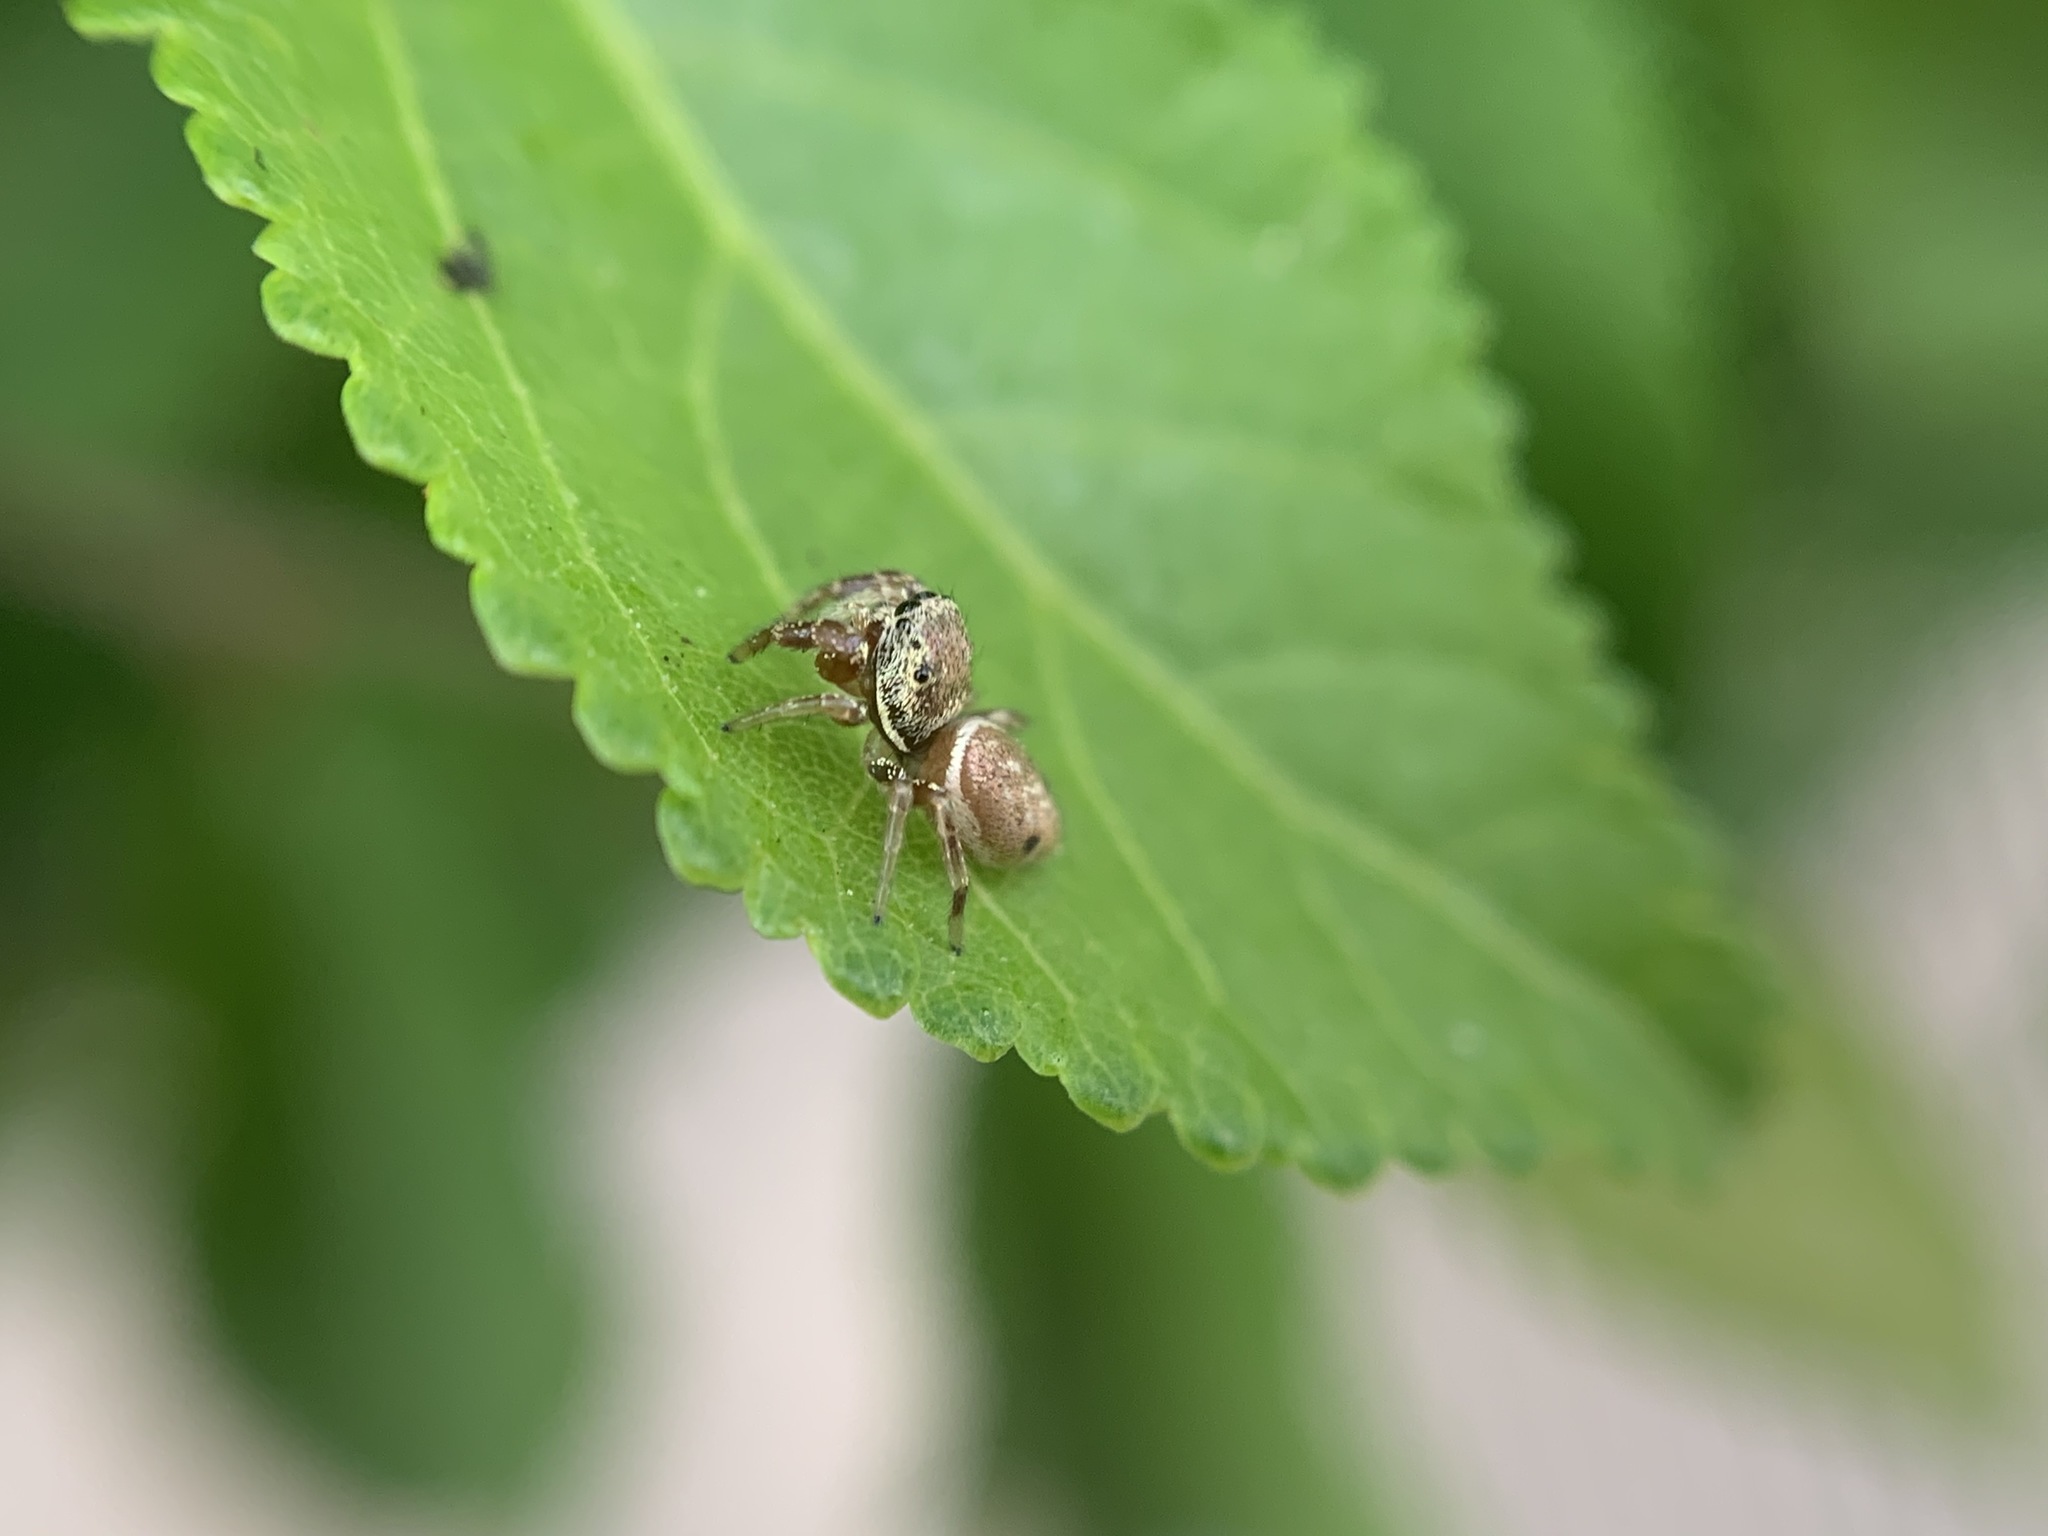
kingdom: Animalia
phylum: Arthropoda
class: Arachnida
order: Araneae
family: Salticidae
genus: Sassacus
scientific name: Sassacus vitis
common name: Jumping spiders
